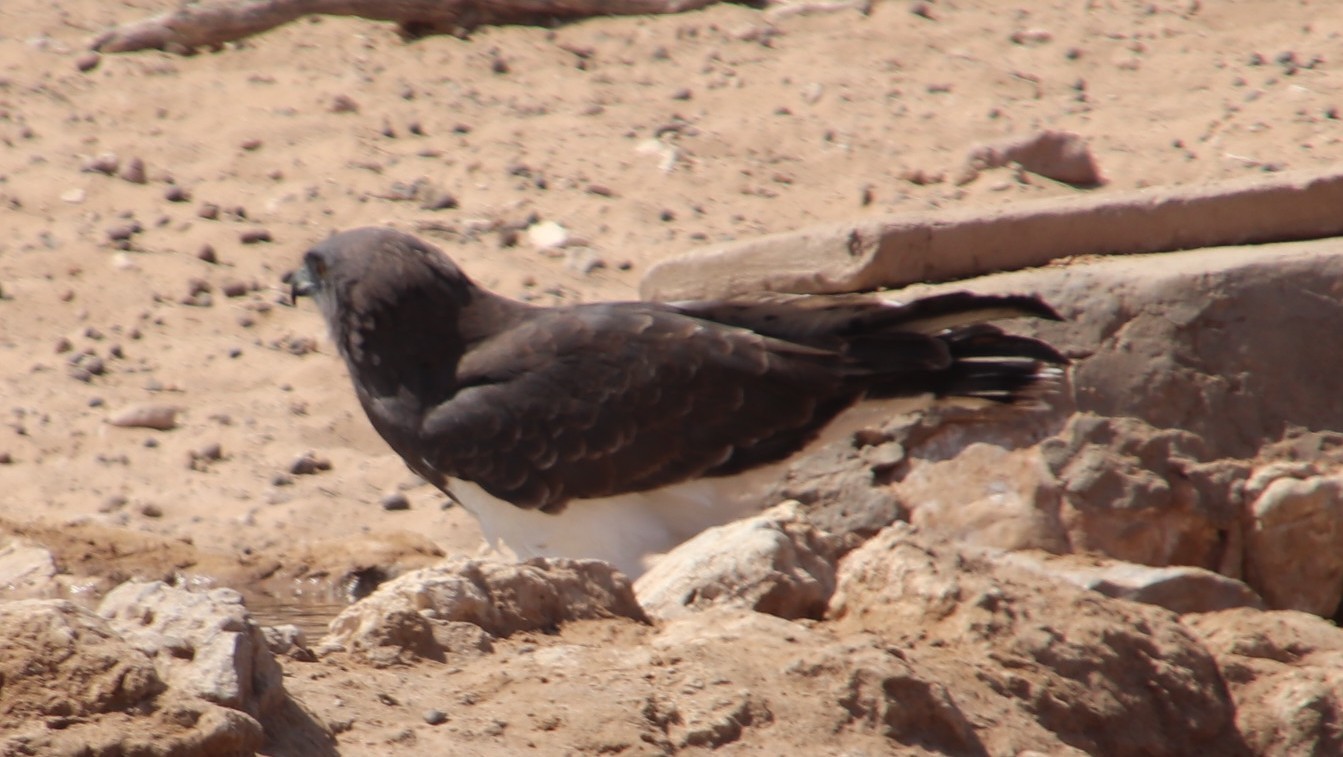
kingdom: Animalia
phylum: Chordata
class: Aves
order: Accipitriformes
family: Accipitridae
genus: Circaetus
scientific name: Circaetus pectoralis
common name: Black-chested snake eagle
